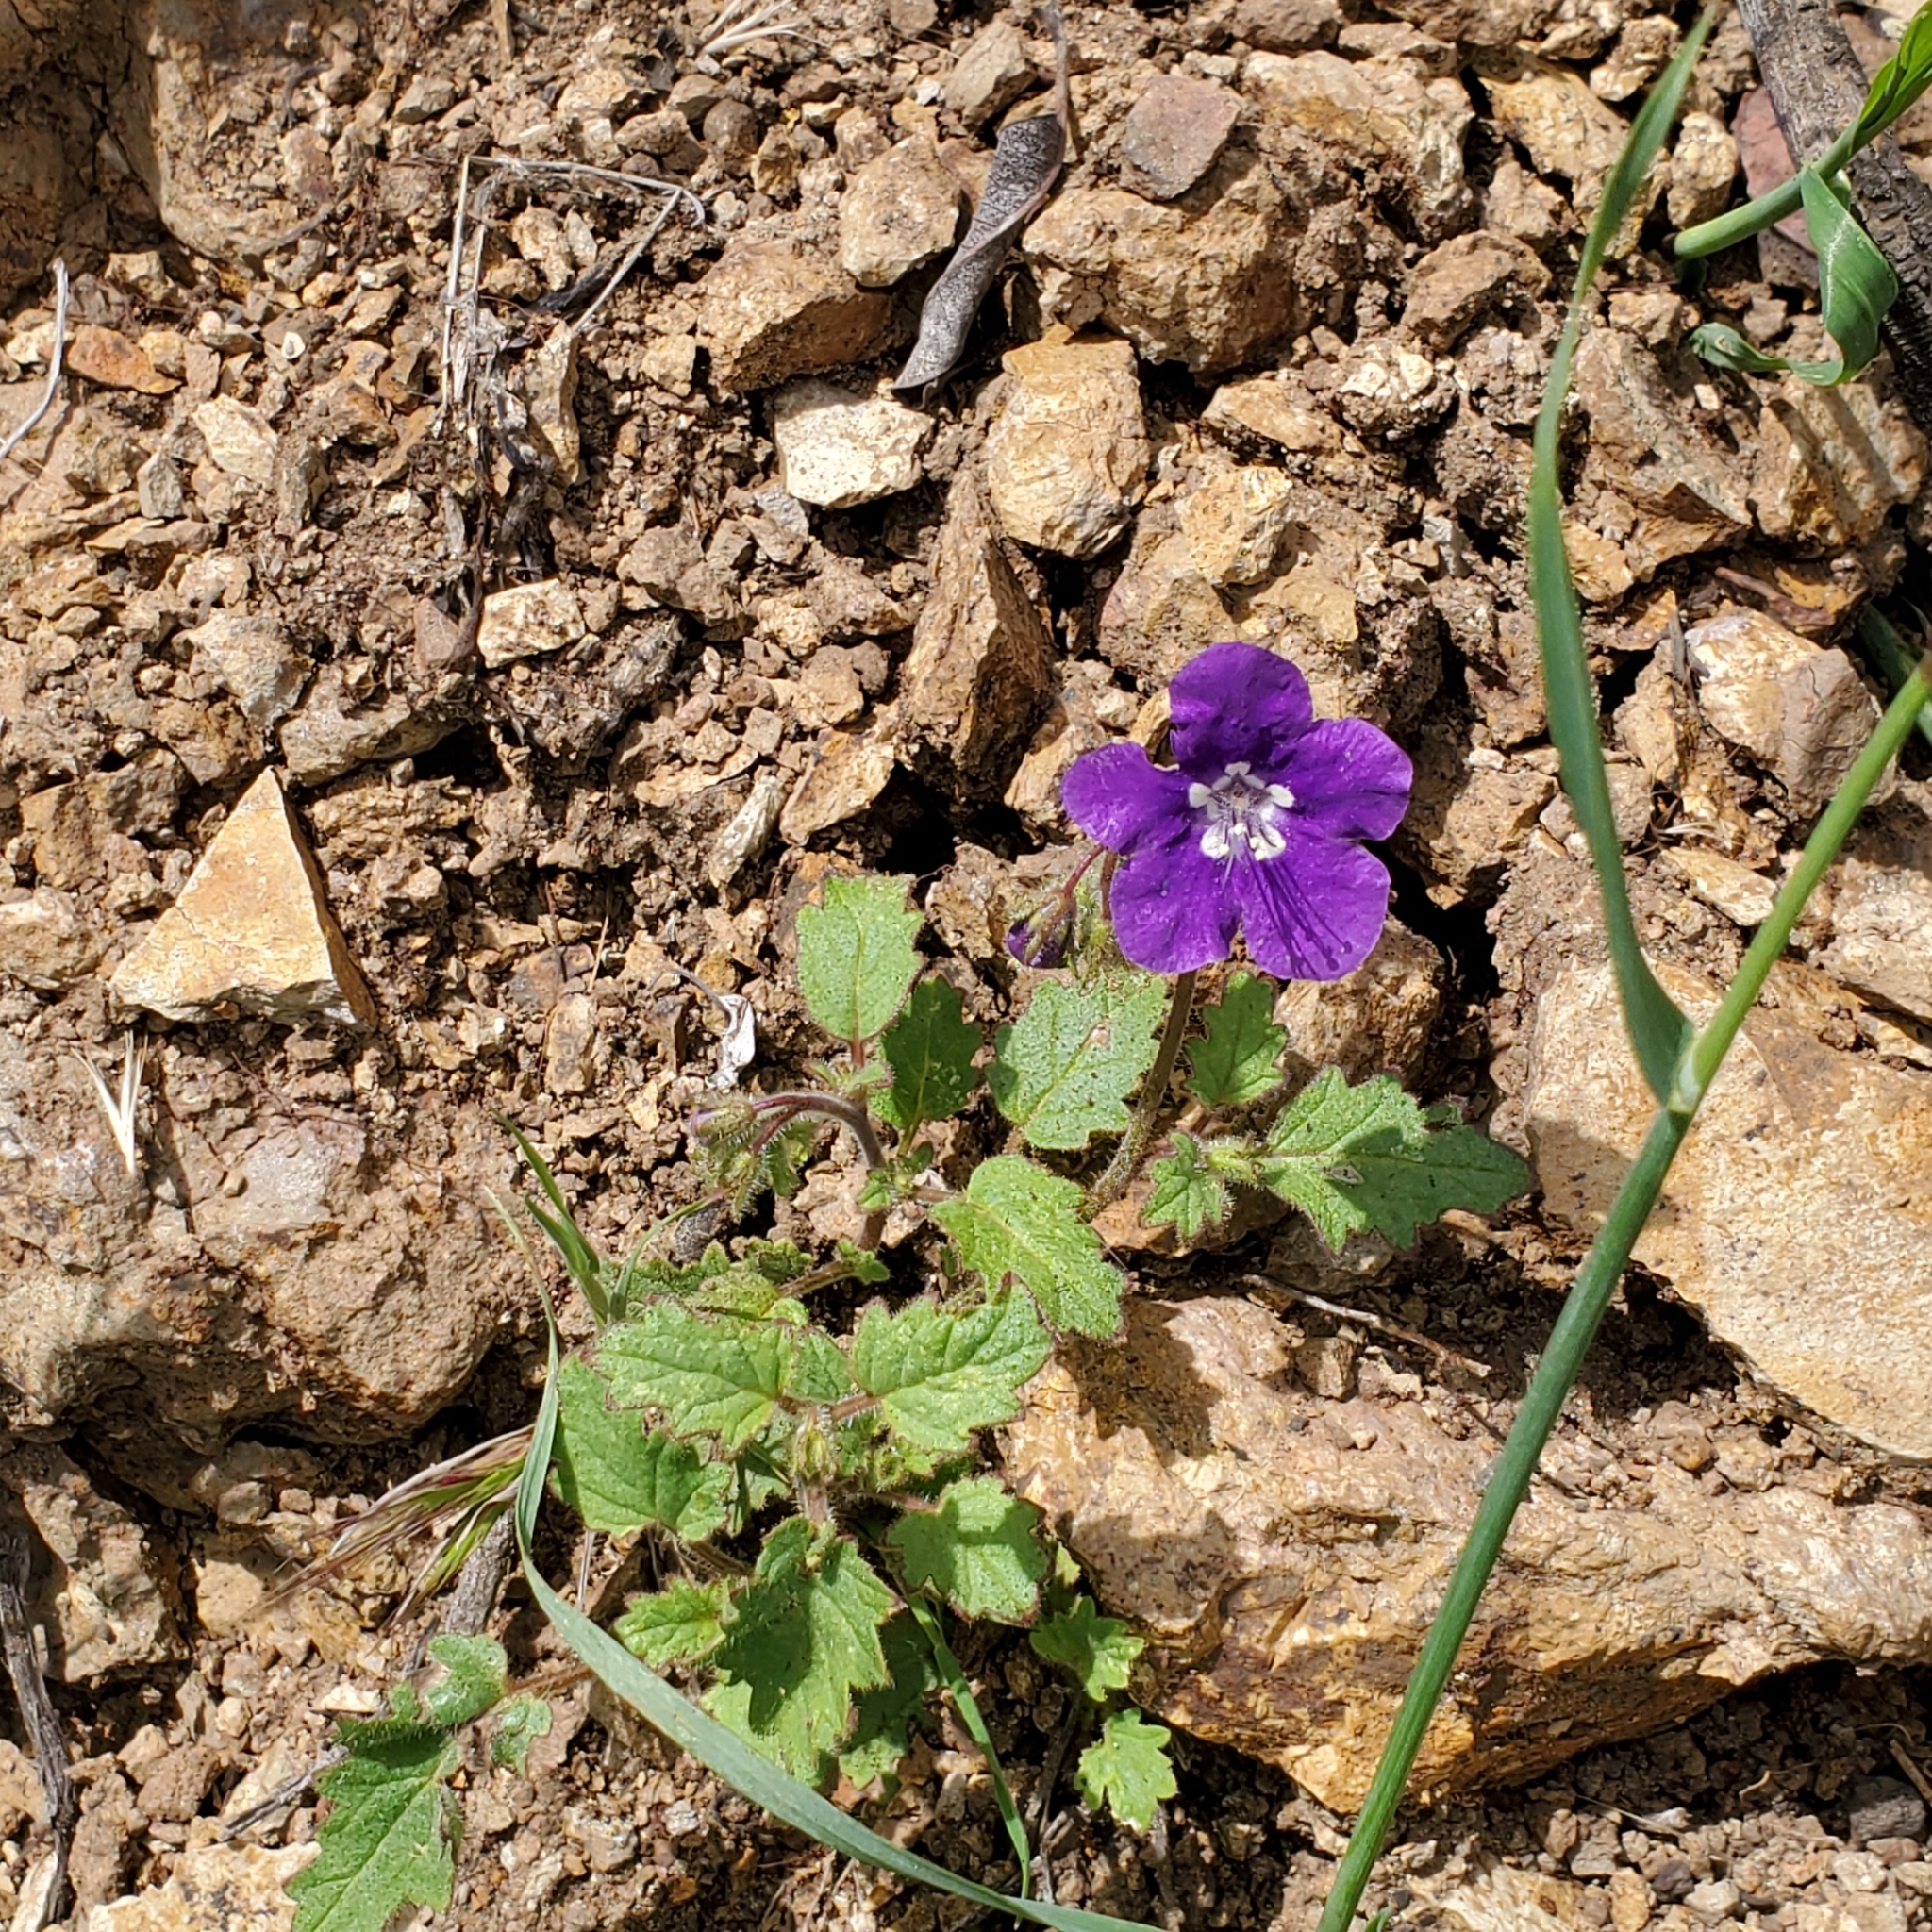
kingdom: Plantae
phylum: Tracheophyta
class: Magnoliopsida
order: Boraginales
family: Hydrophyllaceae
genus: Phacelia
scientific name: Phacelia parryi
